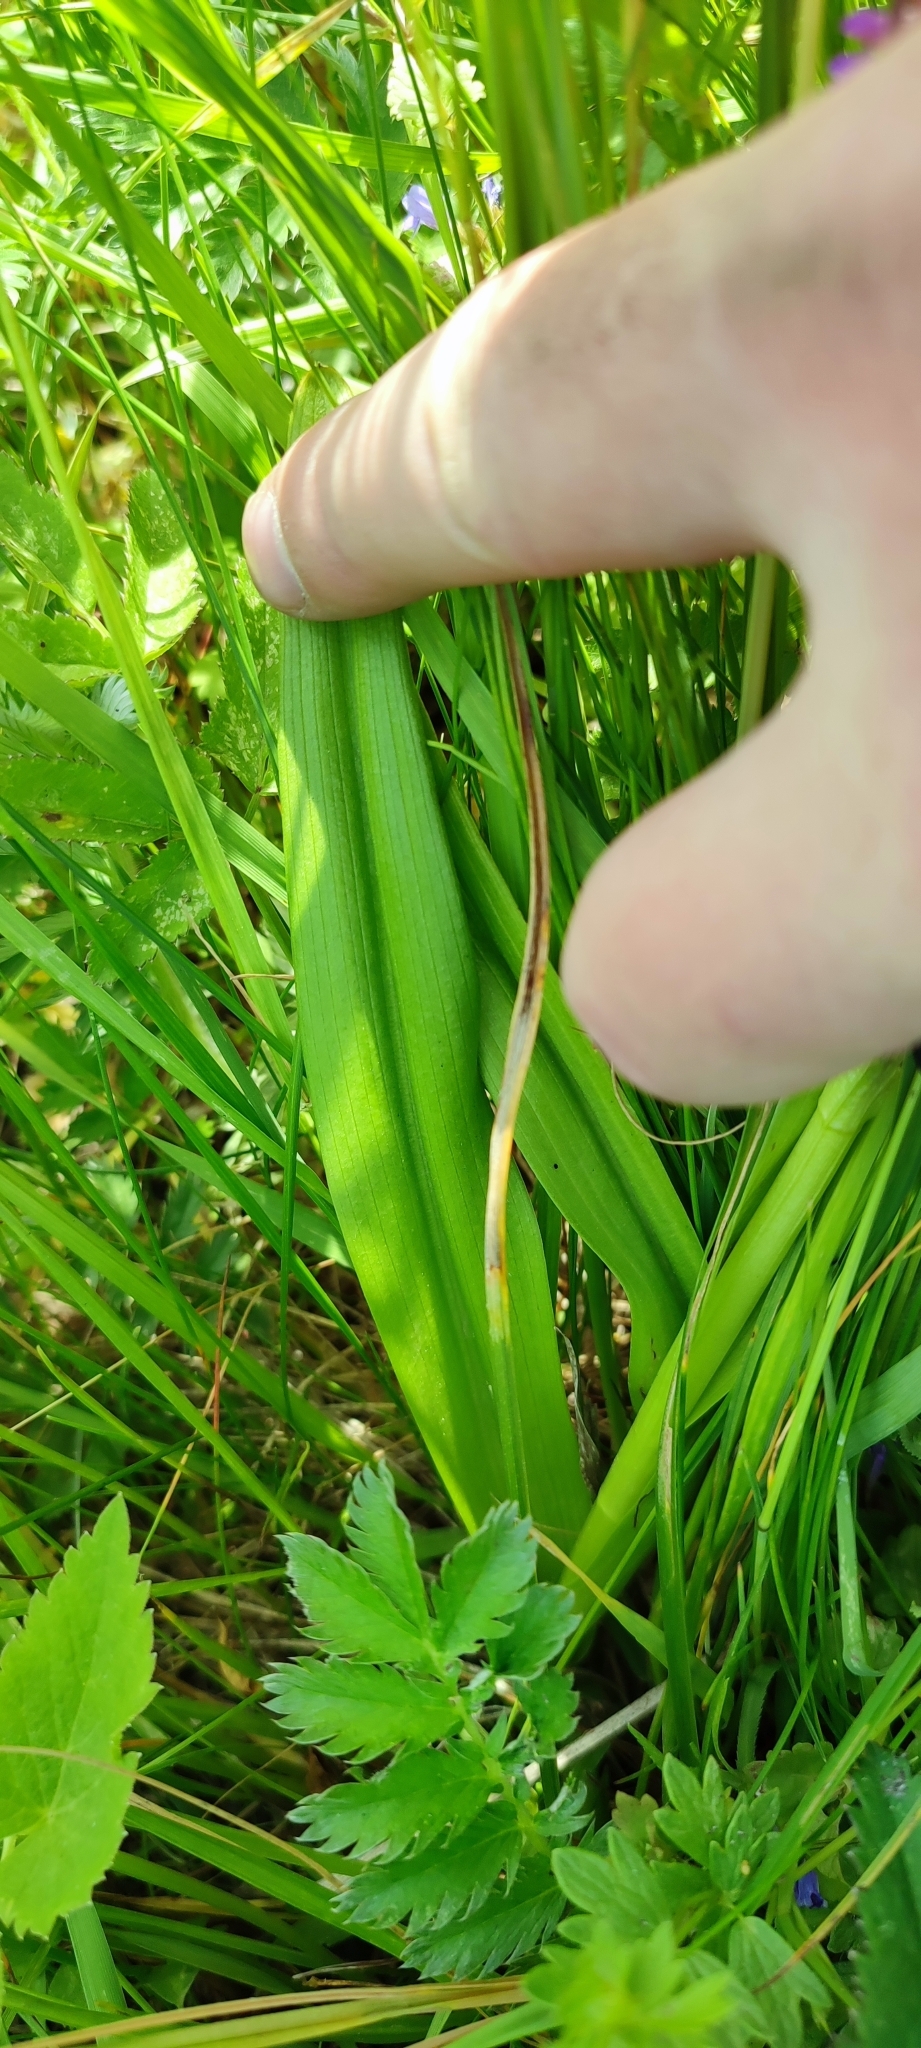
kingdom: Plantae
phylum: Tracheophyta
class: Liliopsida
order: Asparagales
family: Orchidaceae
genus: Dactylorhiza
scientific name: Dactylorhiza incarnata
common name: Early marsh-orchid
